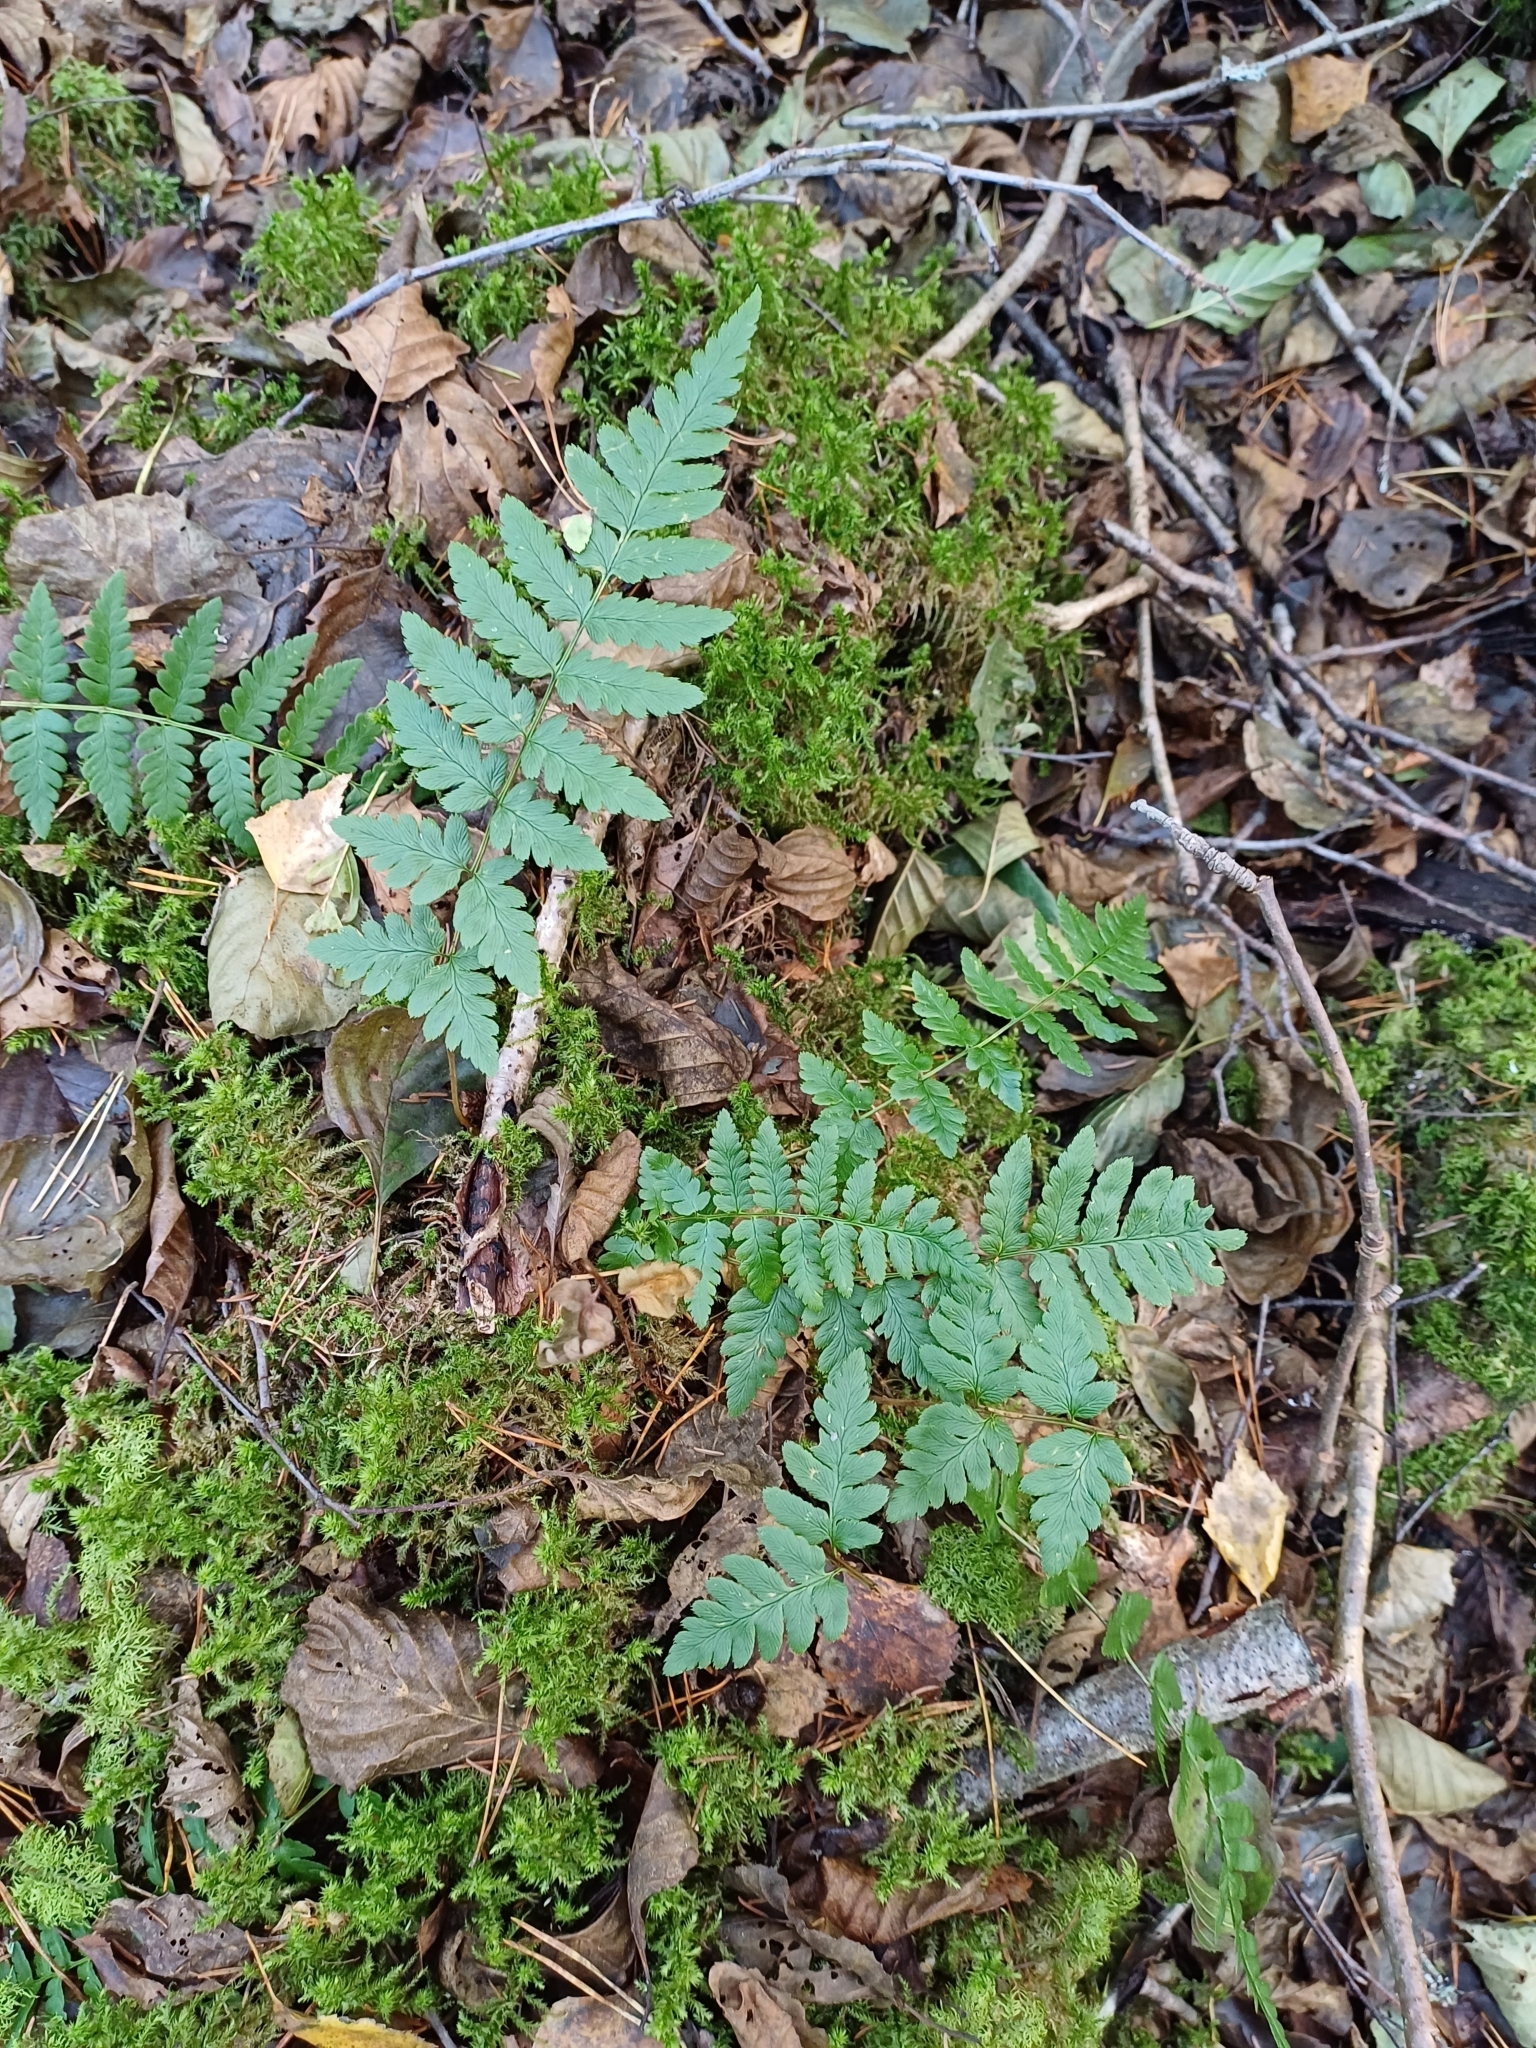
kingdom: Plantae
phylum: Tracheophyta
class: Polypodiopsida
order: Polypodiales
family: Dryopteridaceae
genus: Dryopteris
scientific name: Dryopteris cristata
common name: Crested wood fern
